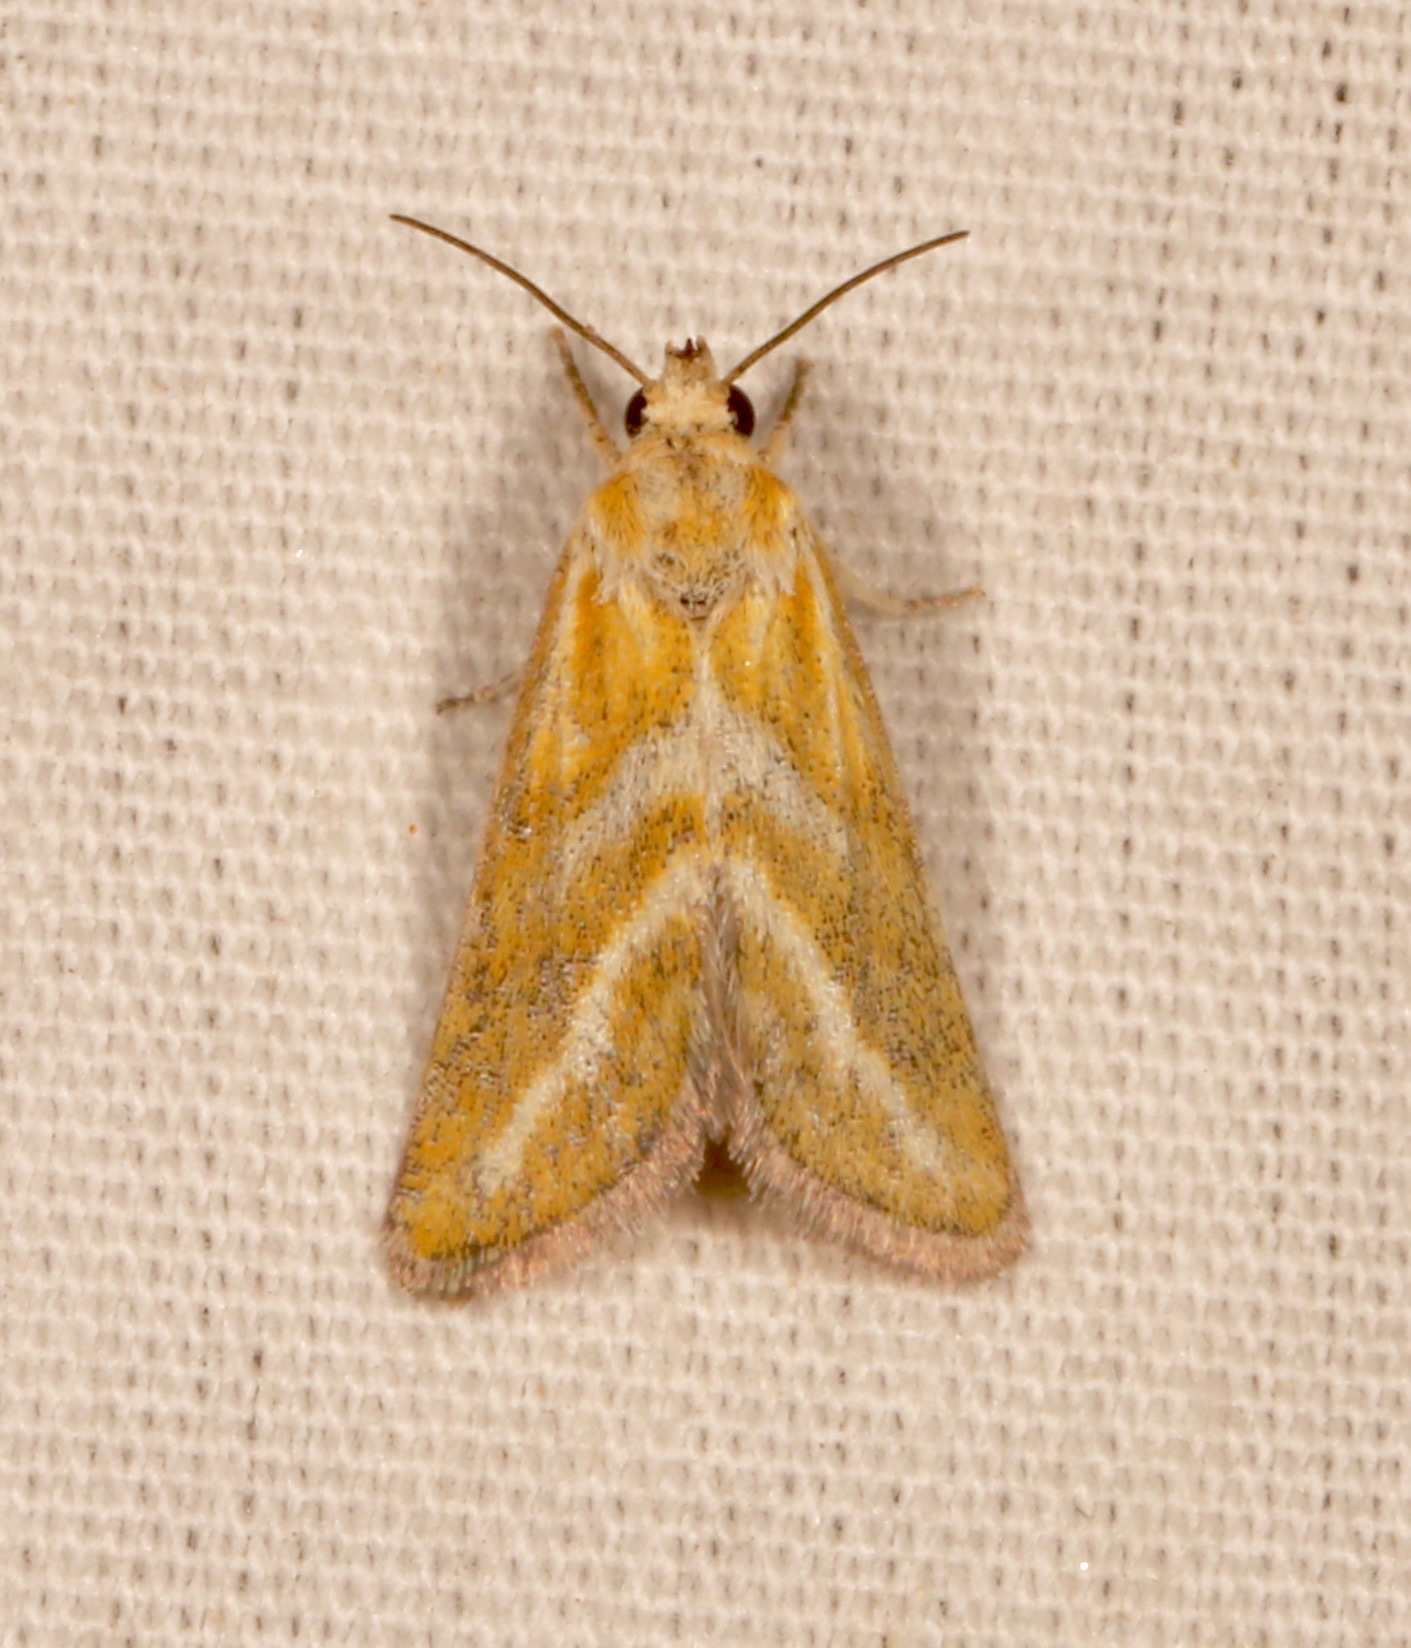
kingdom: Animalia
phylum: Arthropoda
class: Insecta
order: Lepidoptera
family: Noctuidae
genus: Lineostriastiria
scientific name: Lineostriastiria hutsoni
